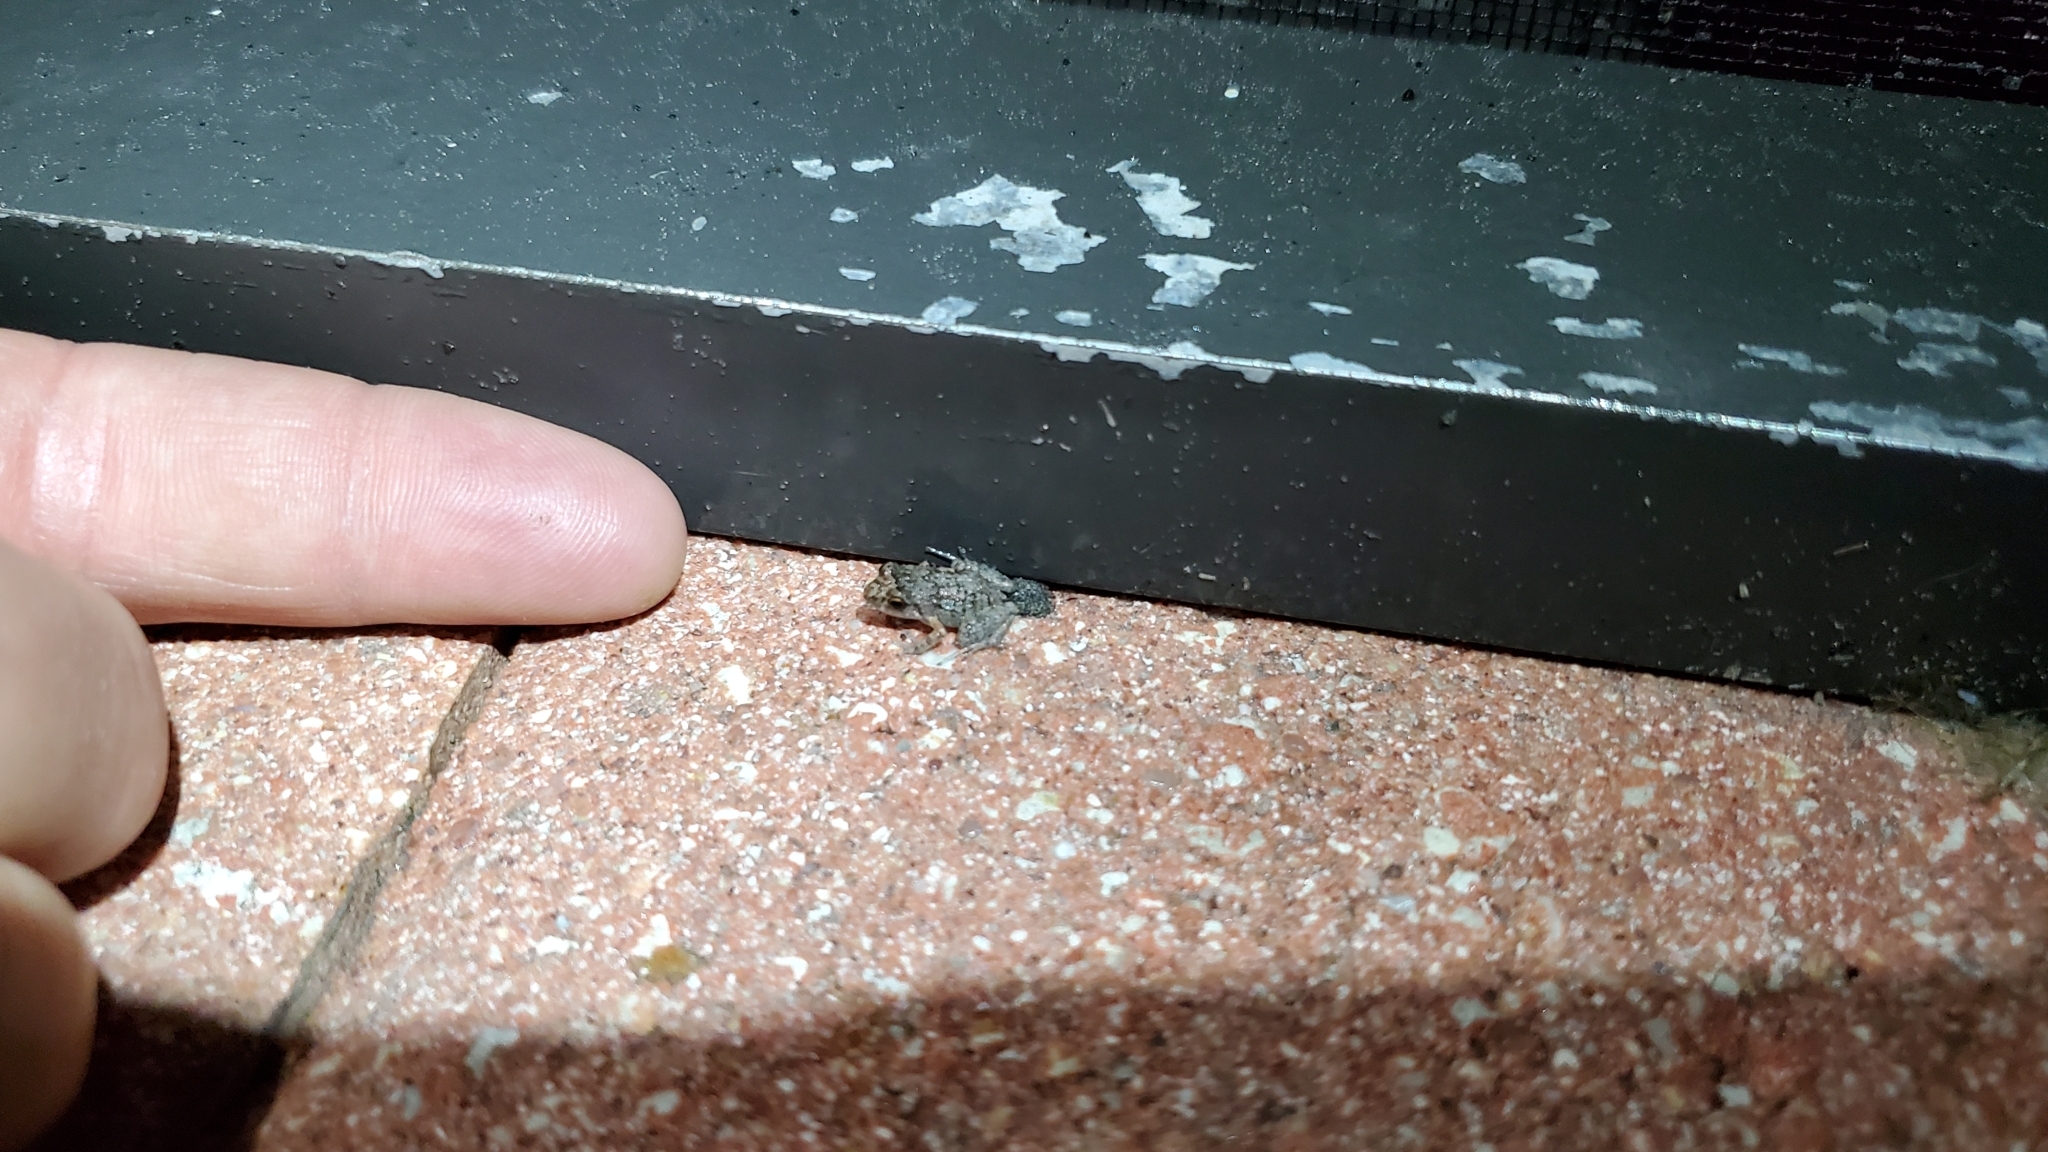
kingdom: Animalia
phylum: Chordata
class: Amphibia
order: Anura
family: Eleutherodactylidae
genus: Eleutherodactylus
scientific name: Eleutherodactylus planirostris
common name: Greenhouse frog
